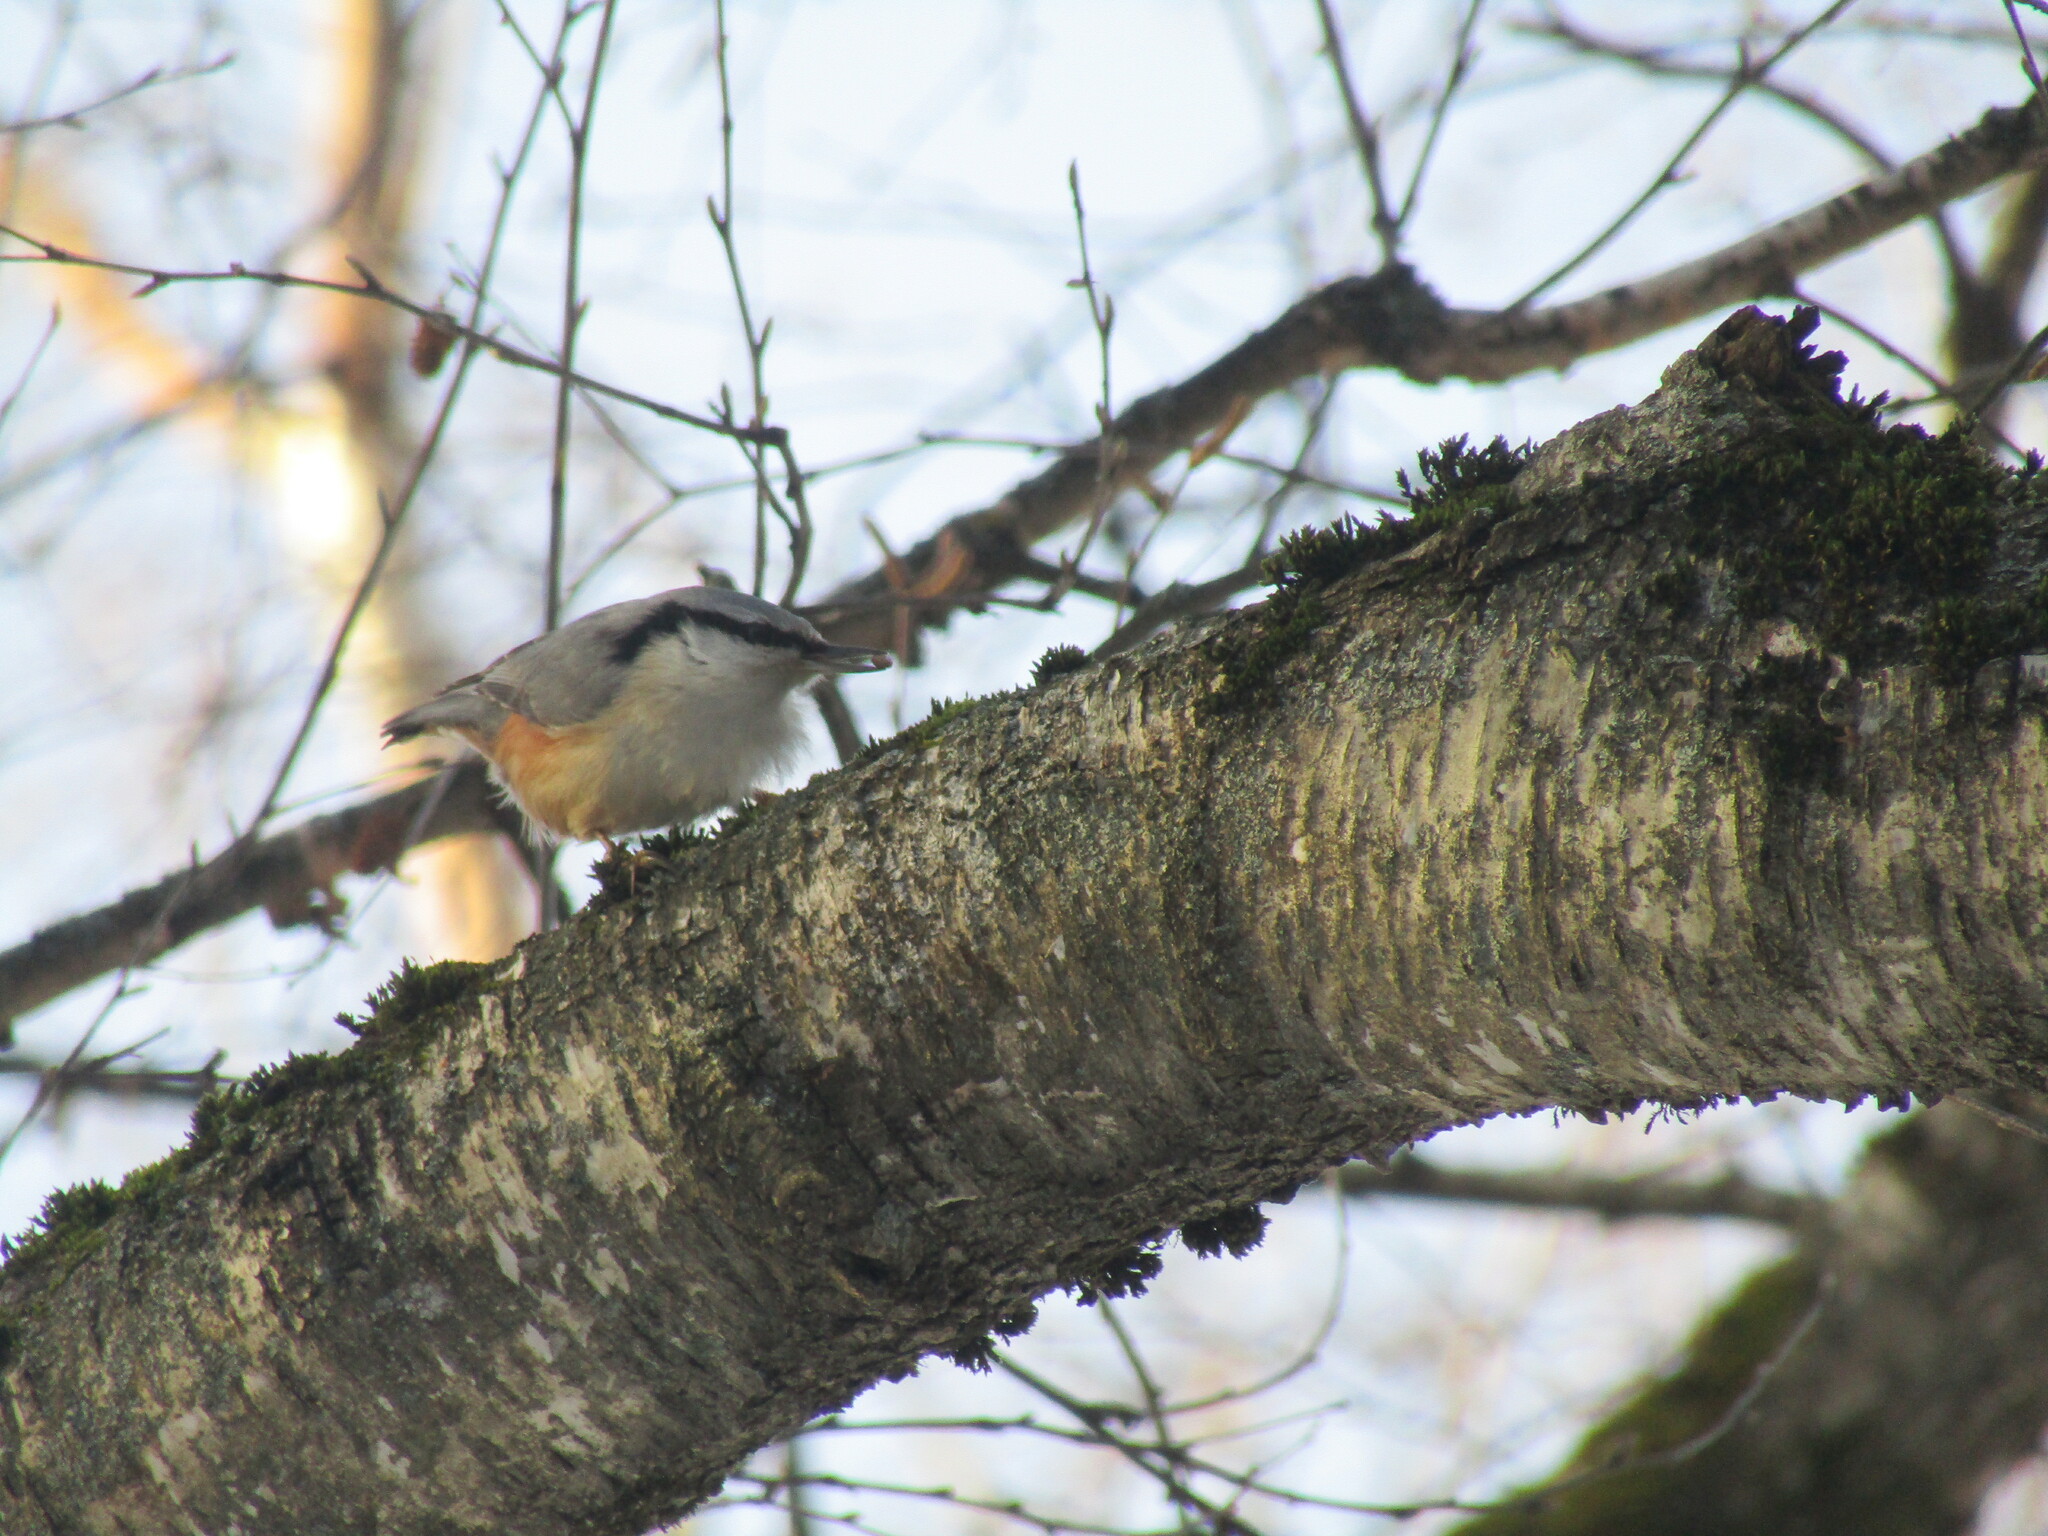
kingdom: Animalia
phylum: Chordata
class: Aves
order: Passeriformes
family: Sittidae
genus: Sitta
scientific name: Sitta europaea
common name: Eurasian nuthatch
